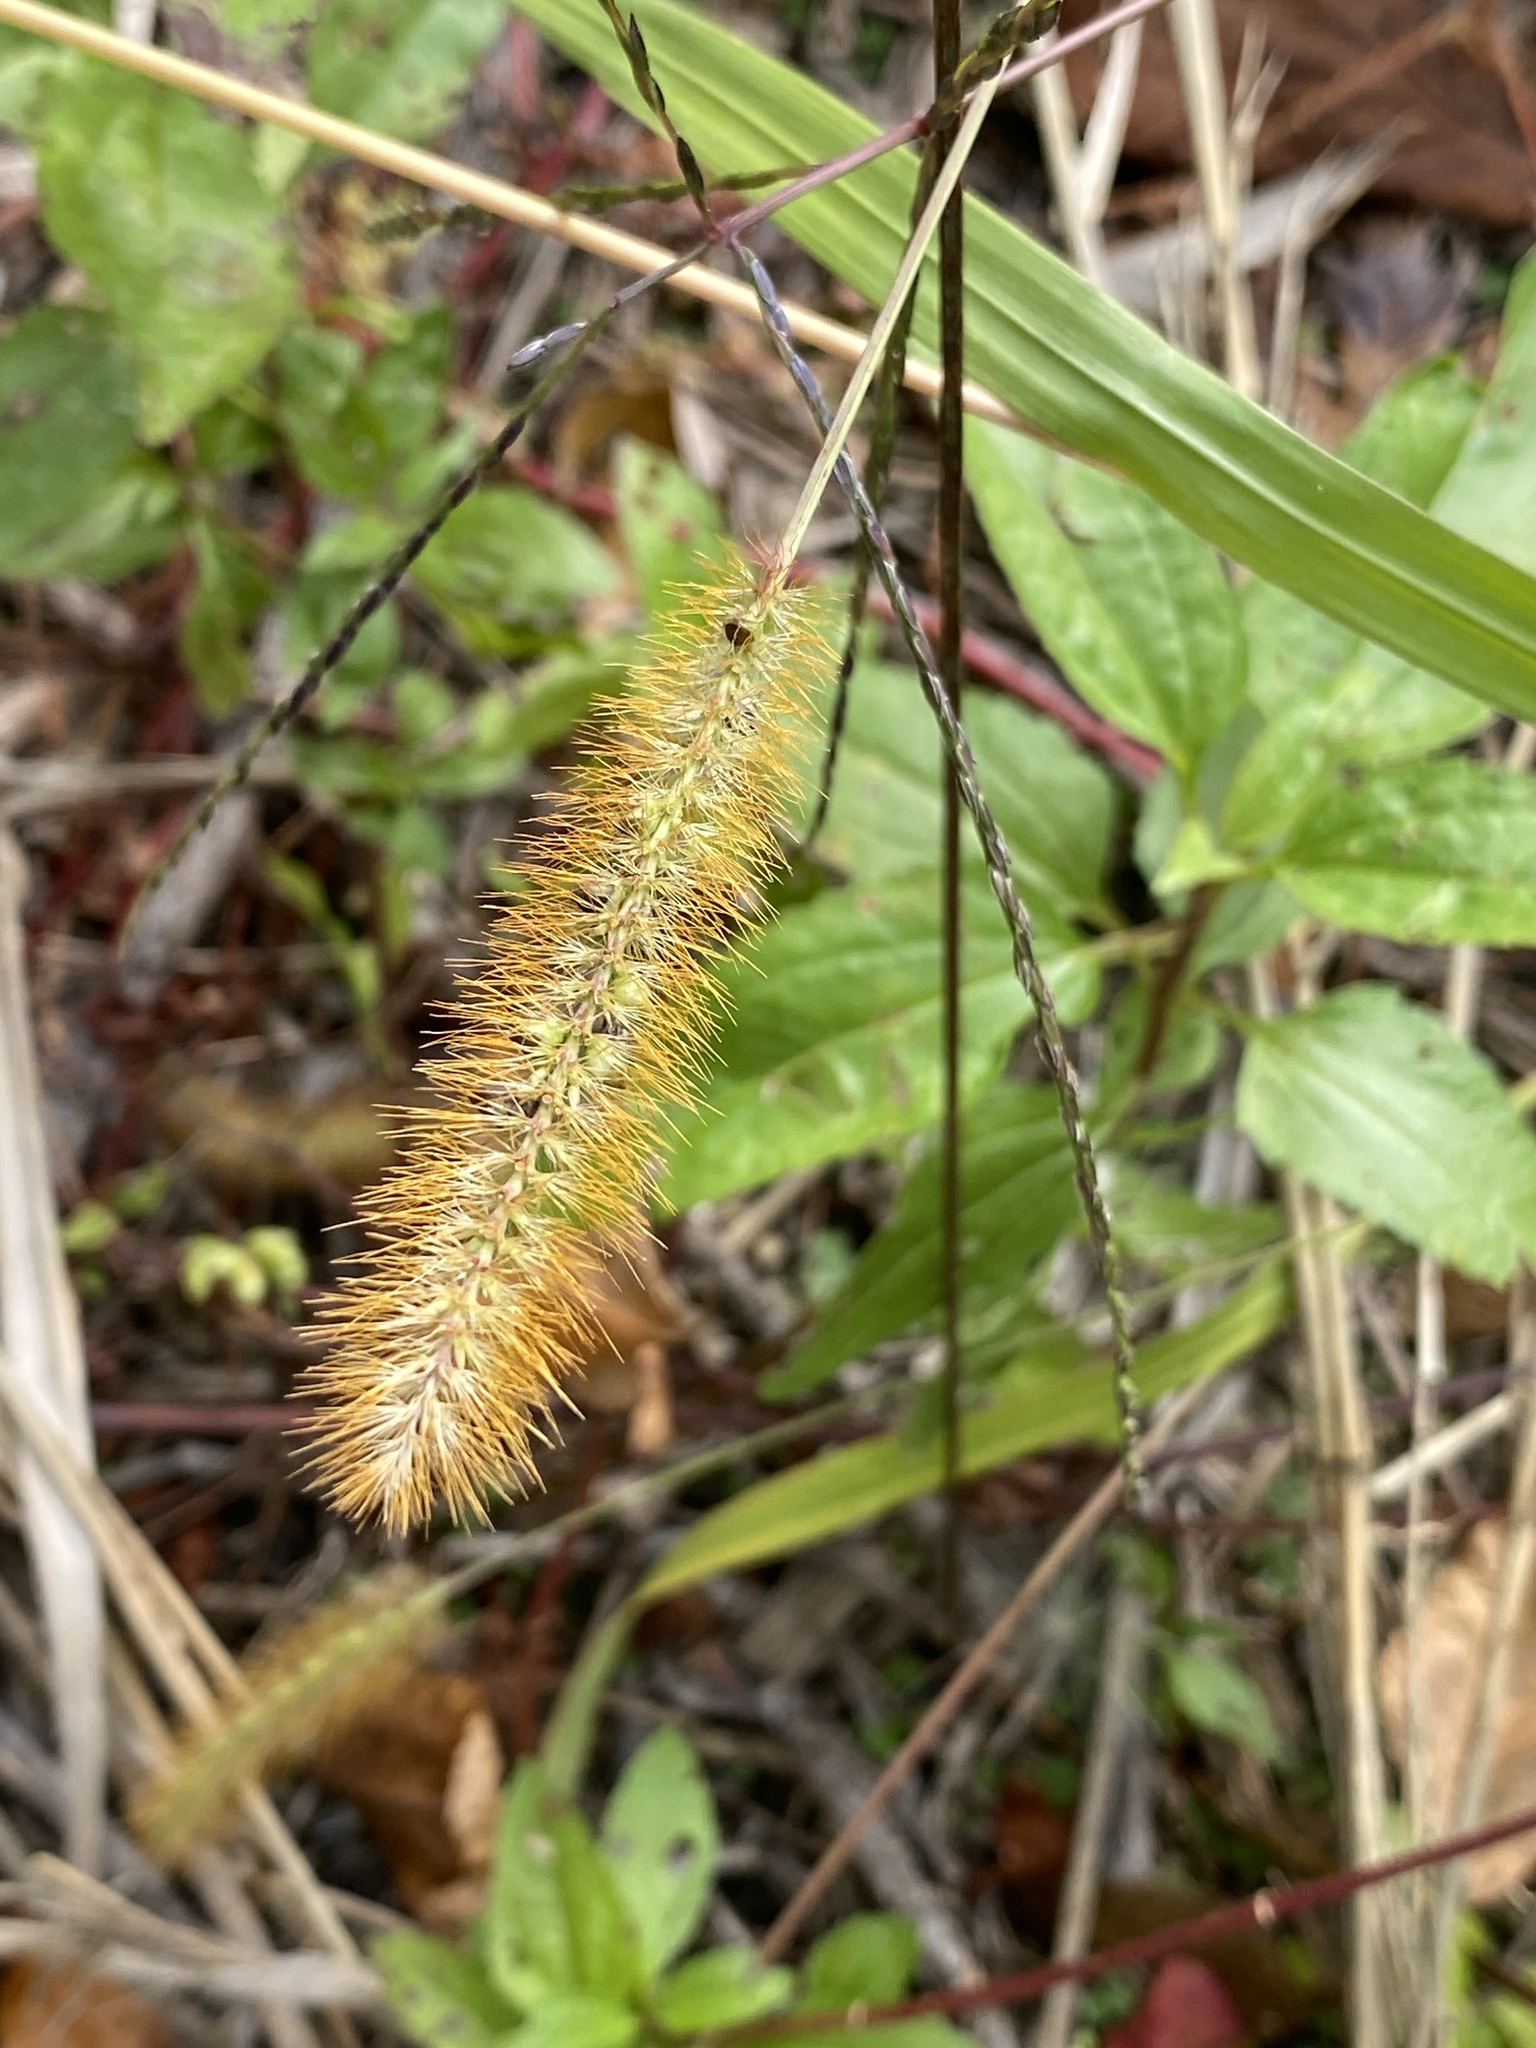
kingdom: Plantae
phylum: Tracheophyta
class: Liliopsida
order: Poales
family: Poaceae
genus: Setaria
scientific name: Setaria pumila
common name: Yellow bristle-grass
